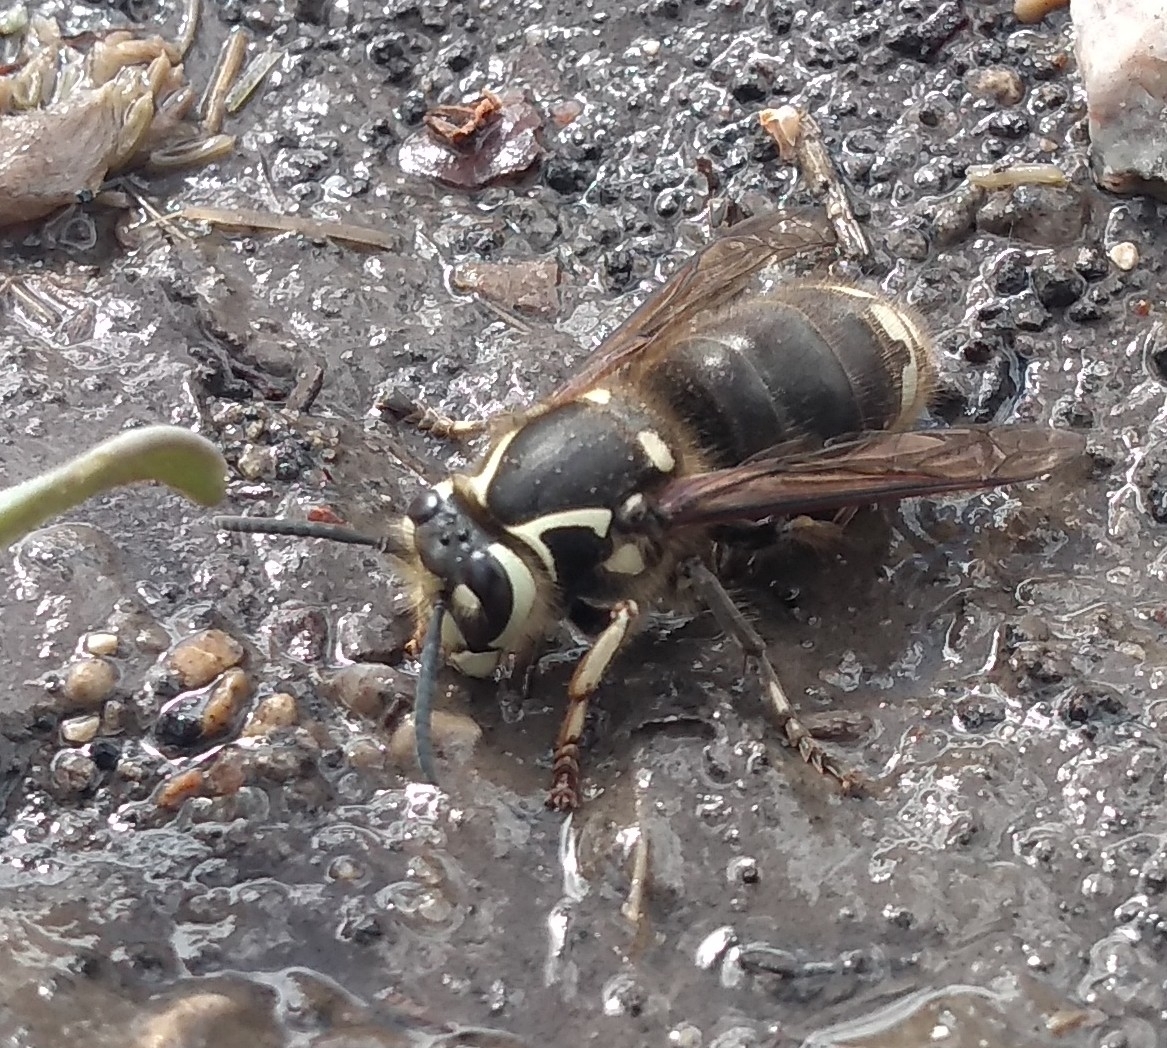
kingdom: Animalia
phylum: Arthropoda
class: Insecta
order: Hymenoptera
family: Vespidae
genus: Dolichovespula
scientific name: Dolichovespula maculata
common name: Bald-faced hornet
